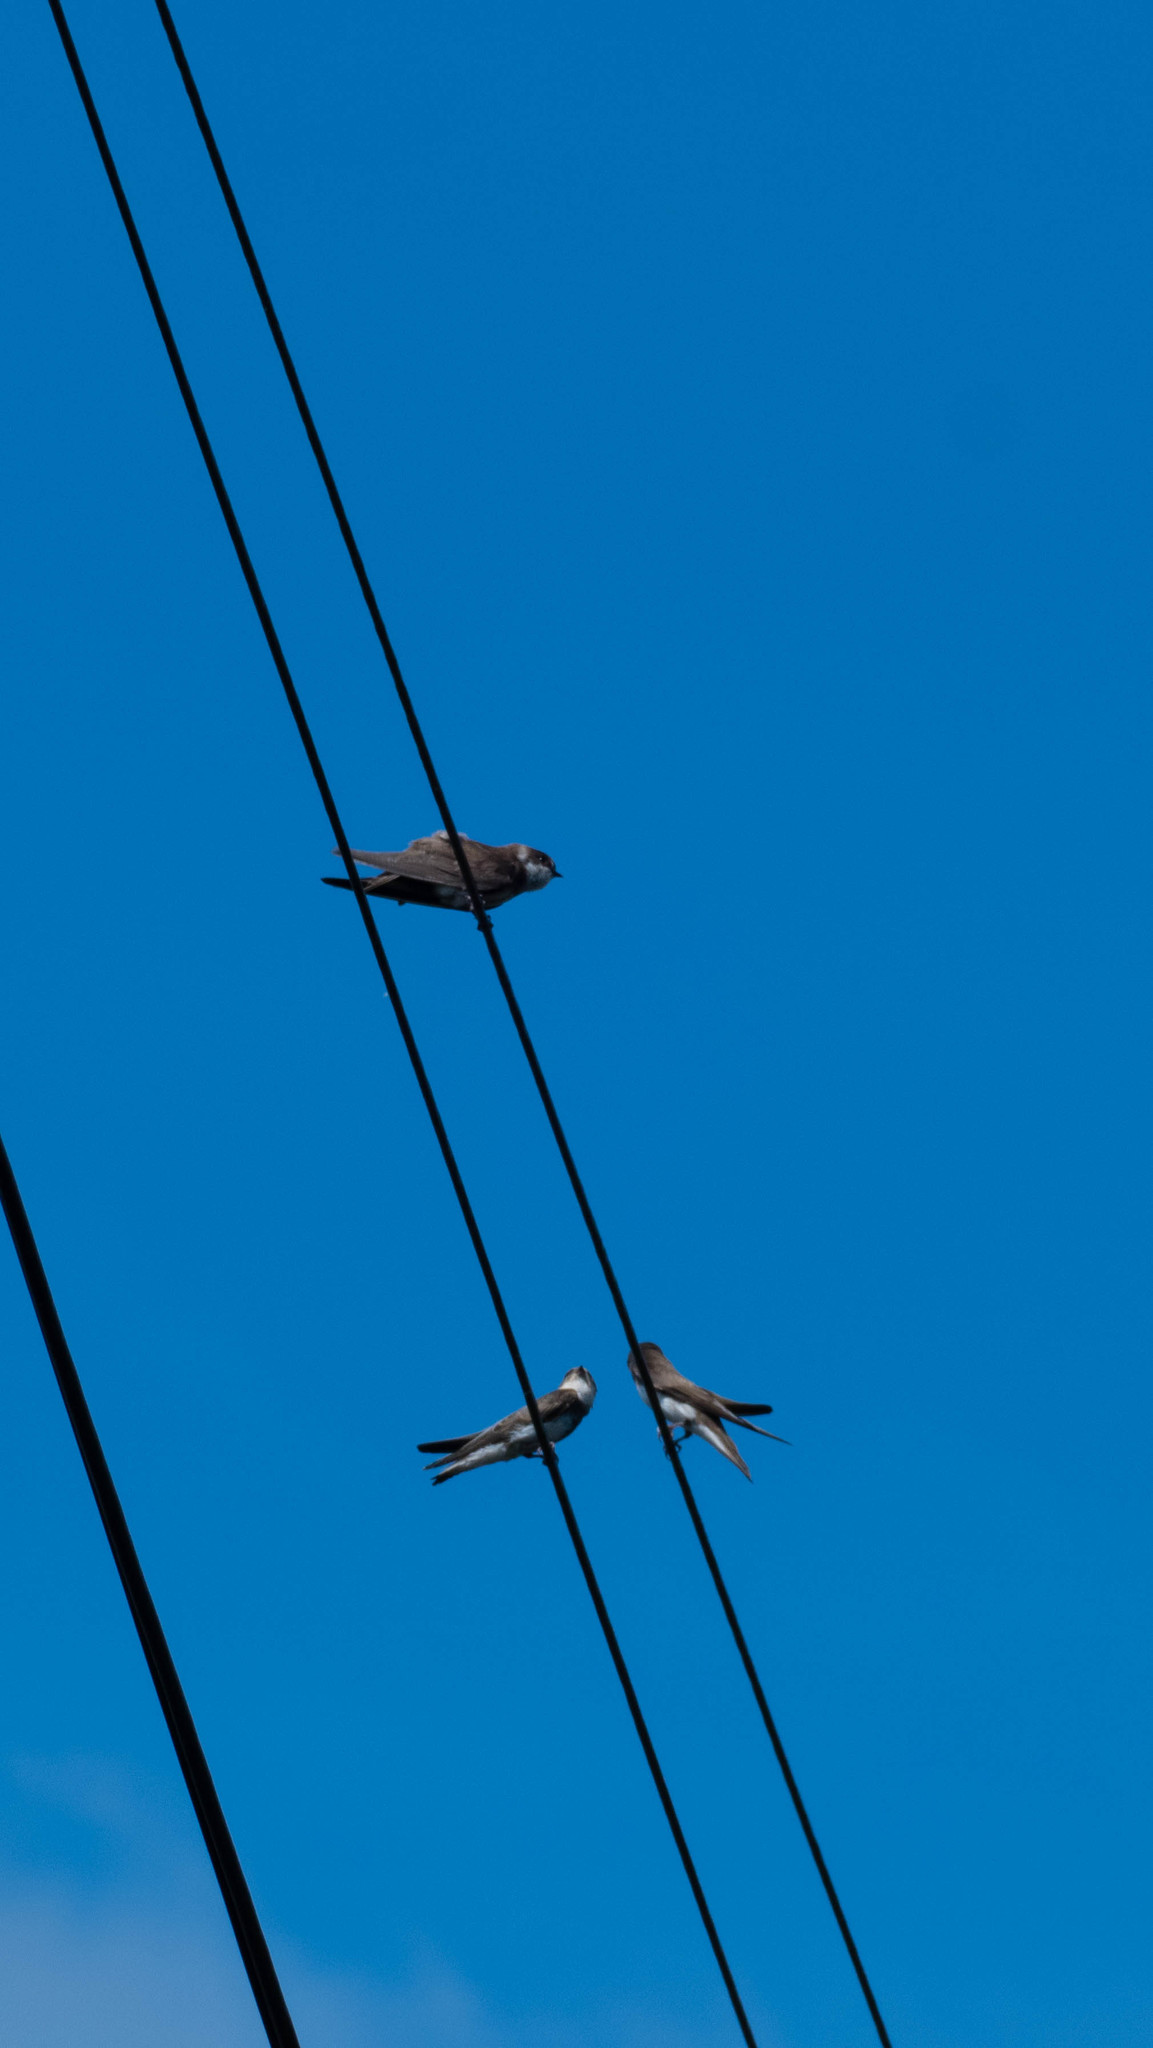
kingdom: Animalia
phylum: Chordata
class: Aves
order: Passeriformes
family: Hirundinidae
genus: Riparia
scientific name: Riparia riparia
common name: Sand martin
